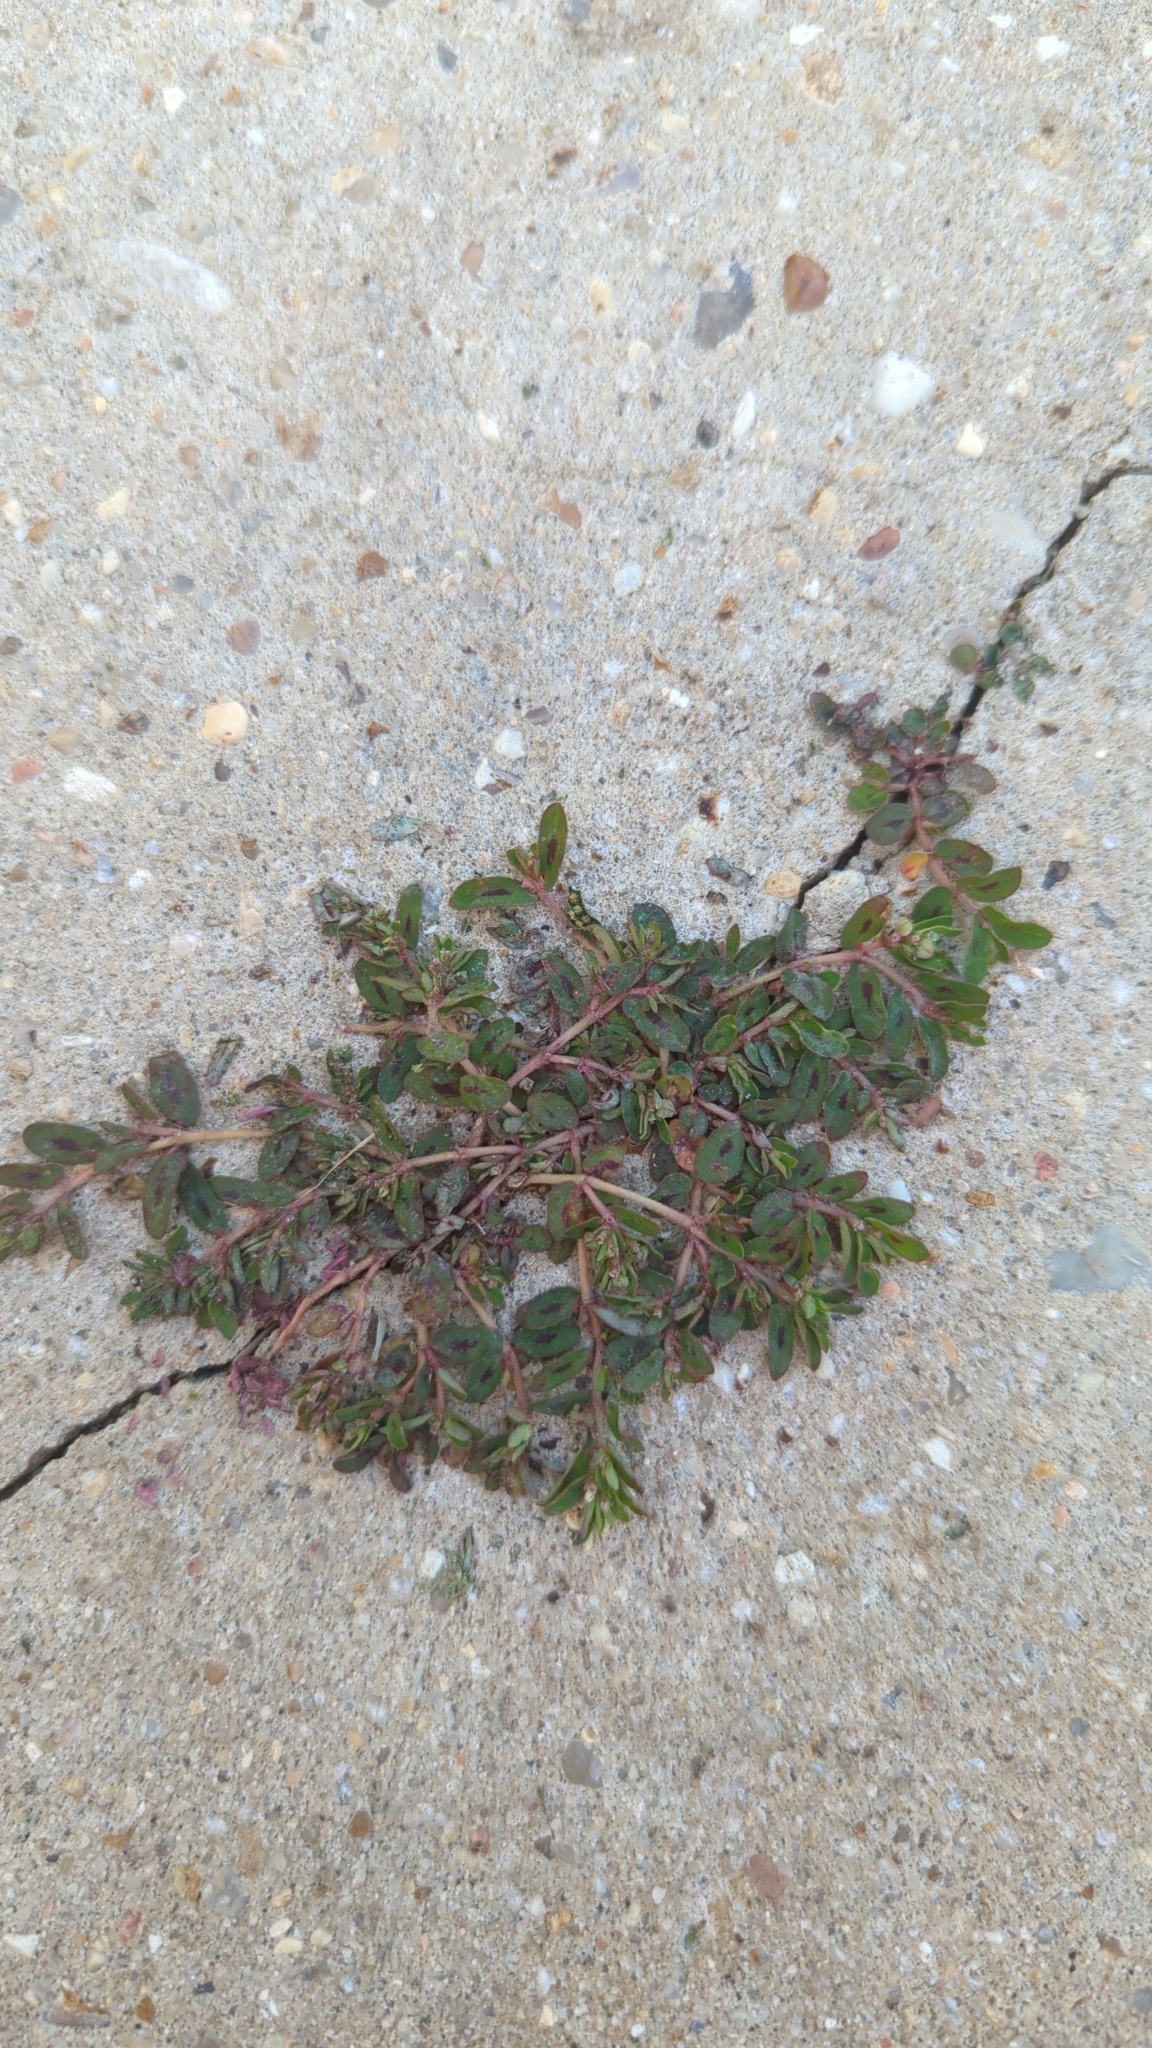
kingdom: Plantae
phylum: Tracheophyta
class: Magnoliopsida
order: Malpighiales
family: Euphorbiaceae
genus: Euphorbia
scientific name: Euphorbia maculata
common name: Spotted spurge
